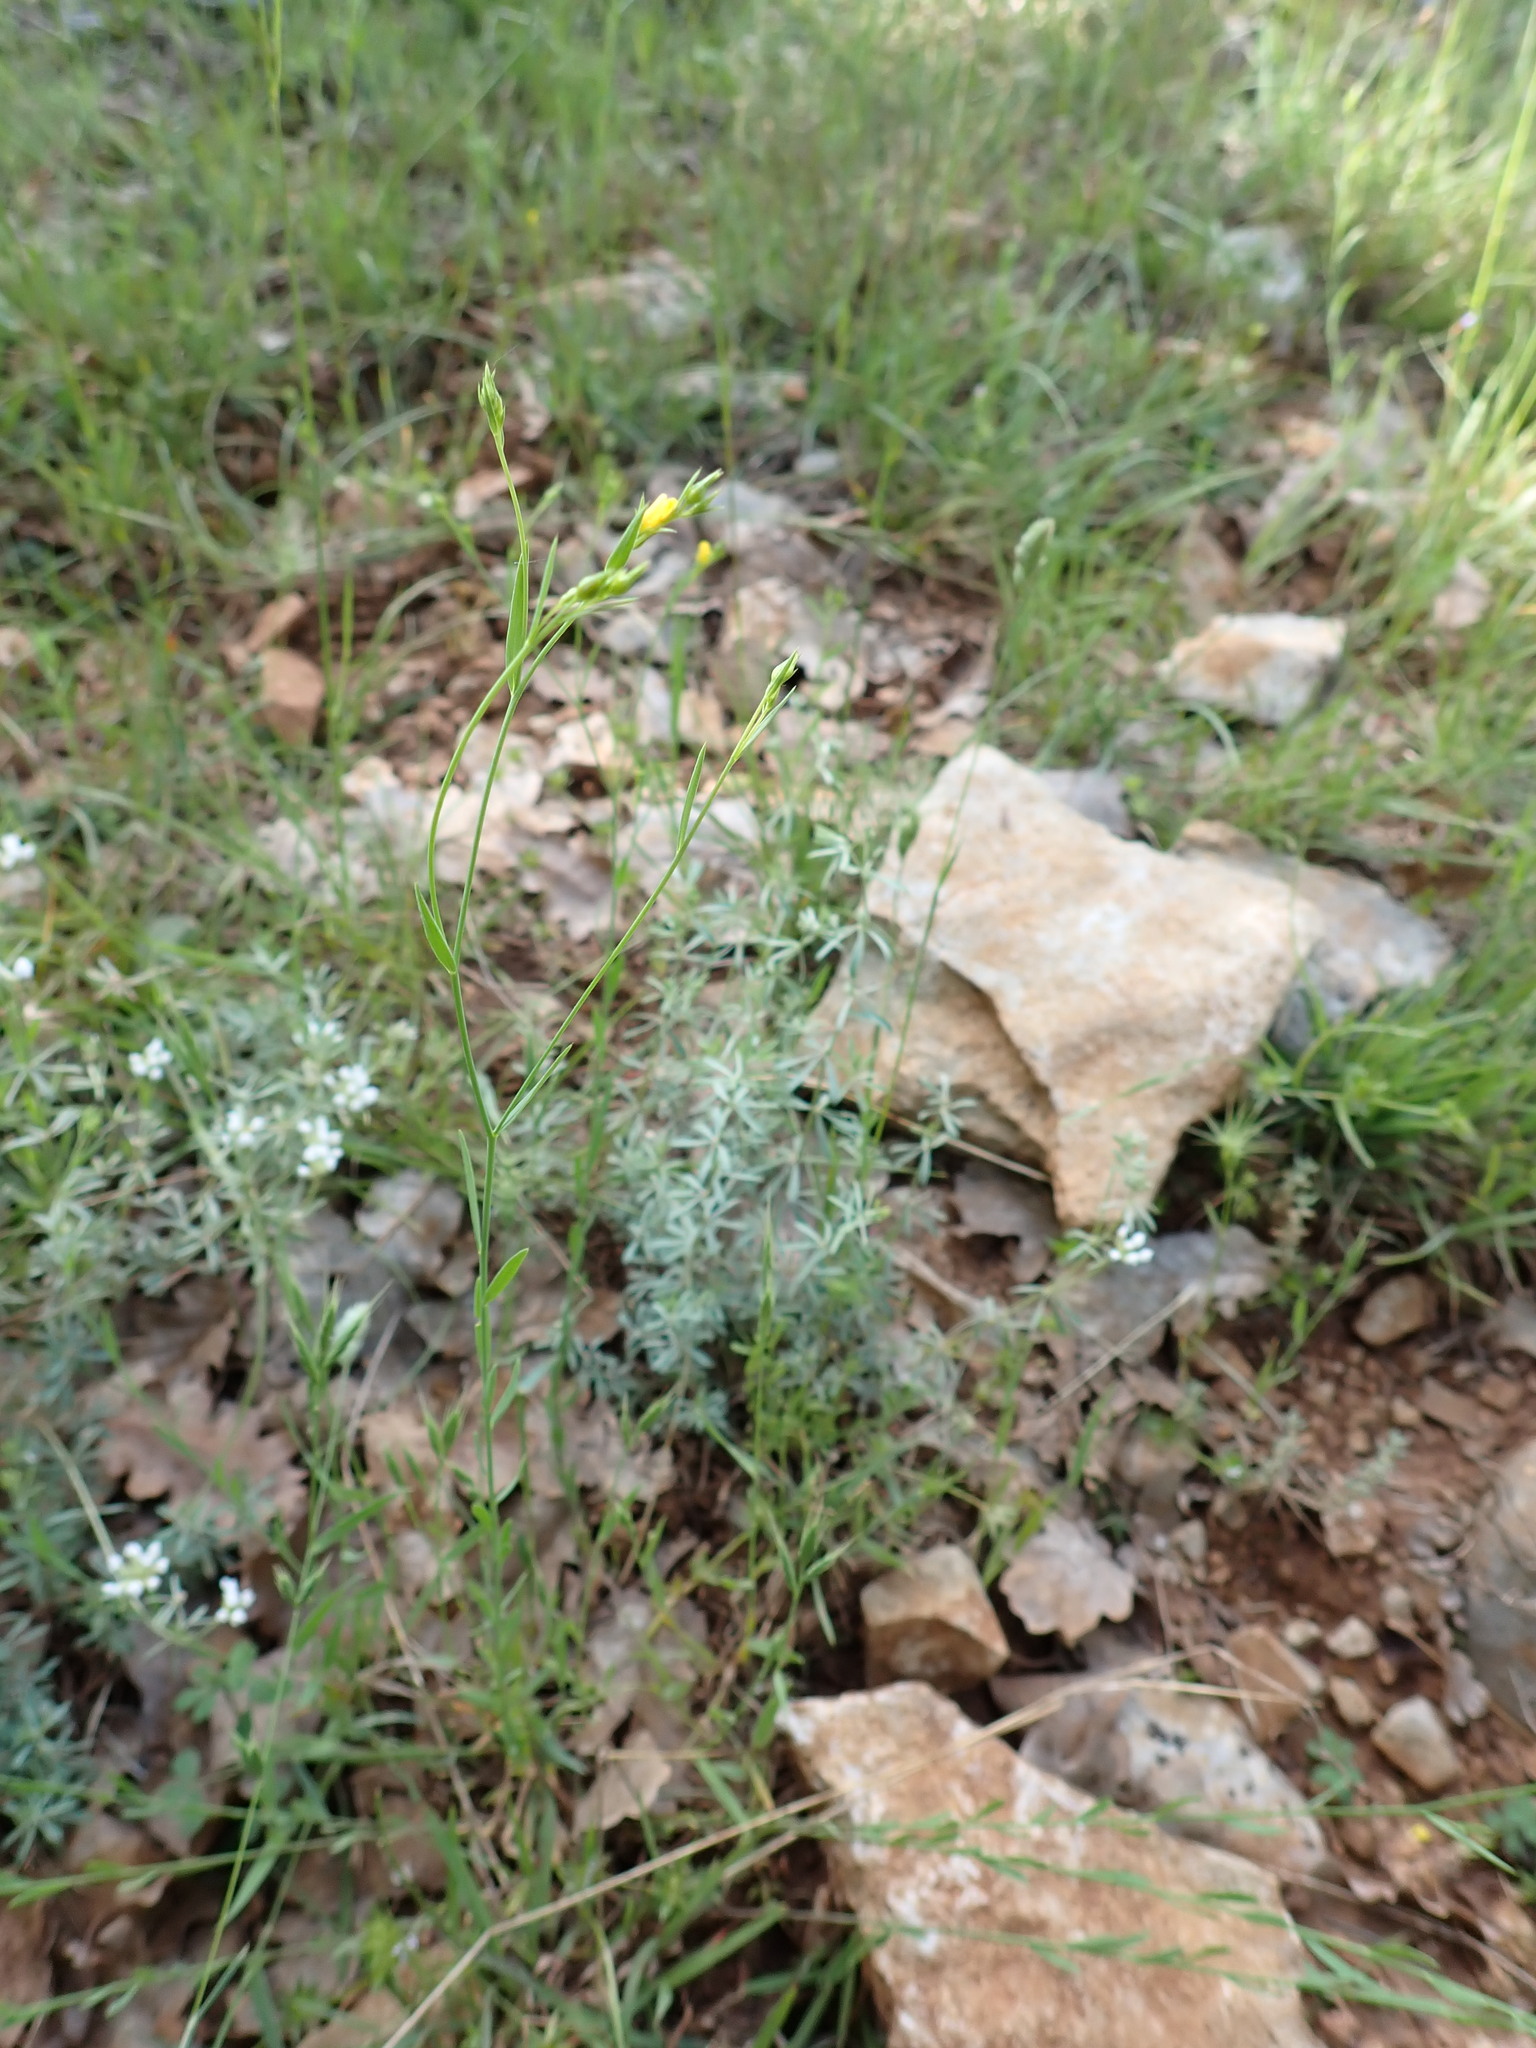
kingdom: Plantae
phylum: Tracheophyta
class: Magnoliopsida
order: Malpighiales
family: Linaceae
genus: Linum
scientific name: Linum trigynum
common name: French flax
